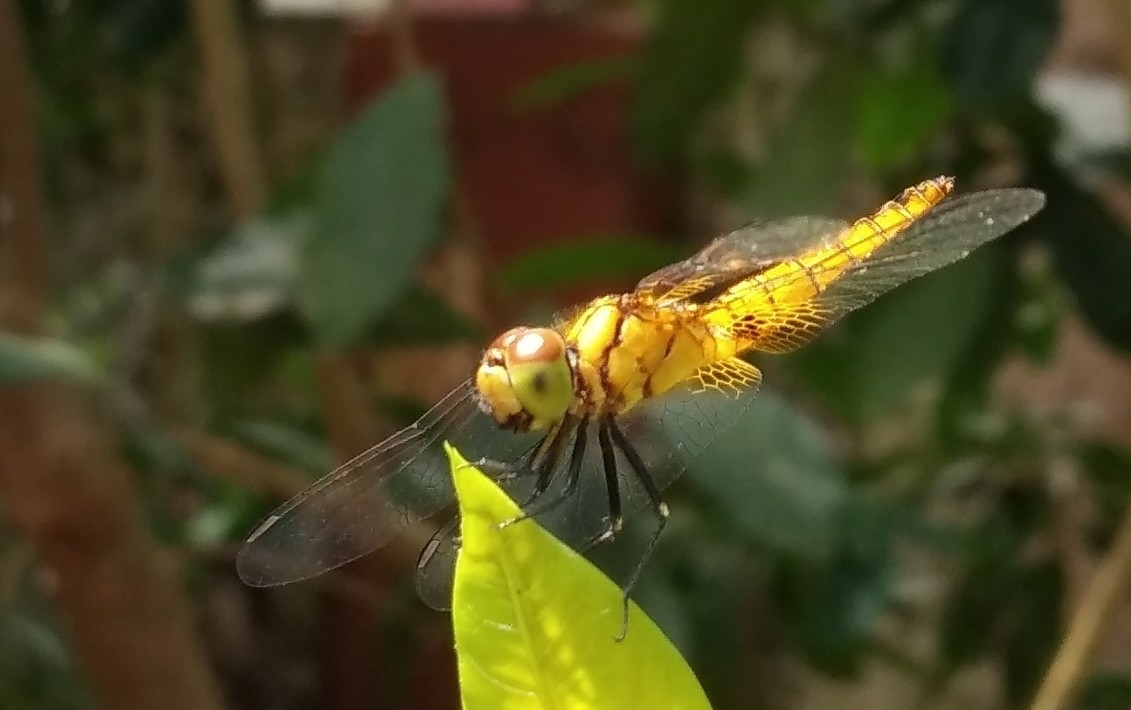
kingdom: Animalia
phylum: Arthropoda
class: Insecta
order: Odonata
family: Libellulidae
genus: Aethriamanta
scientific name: Aethriamanta brevipennis
